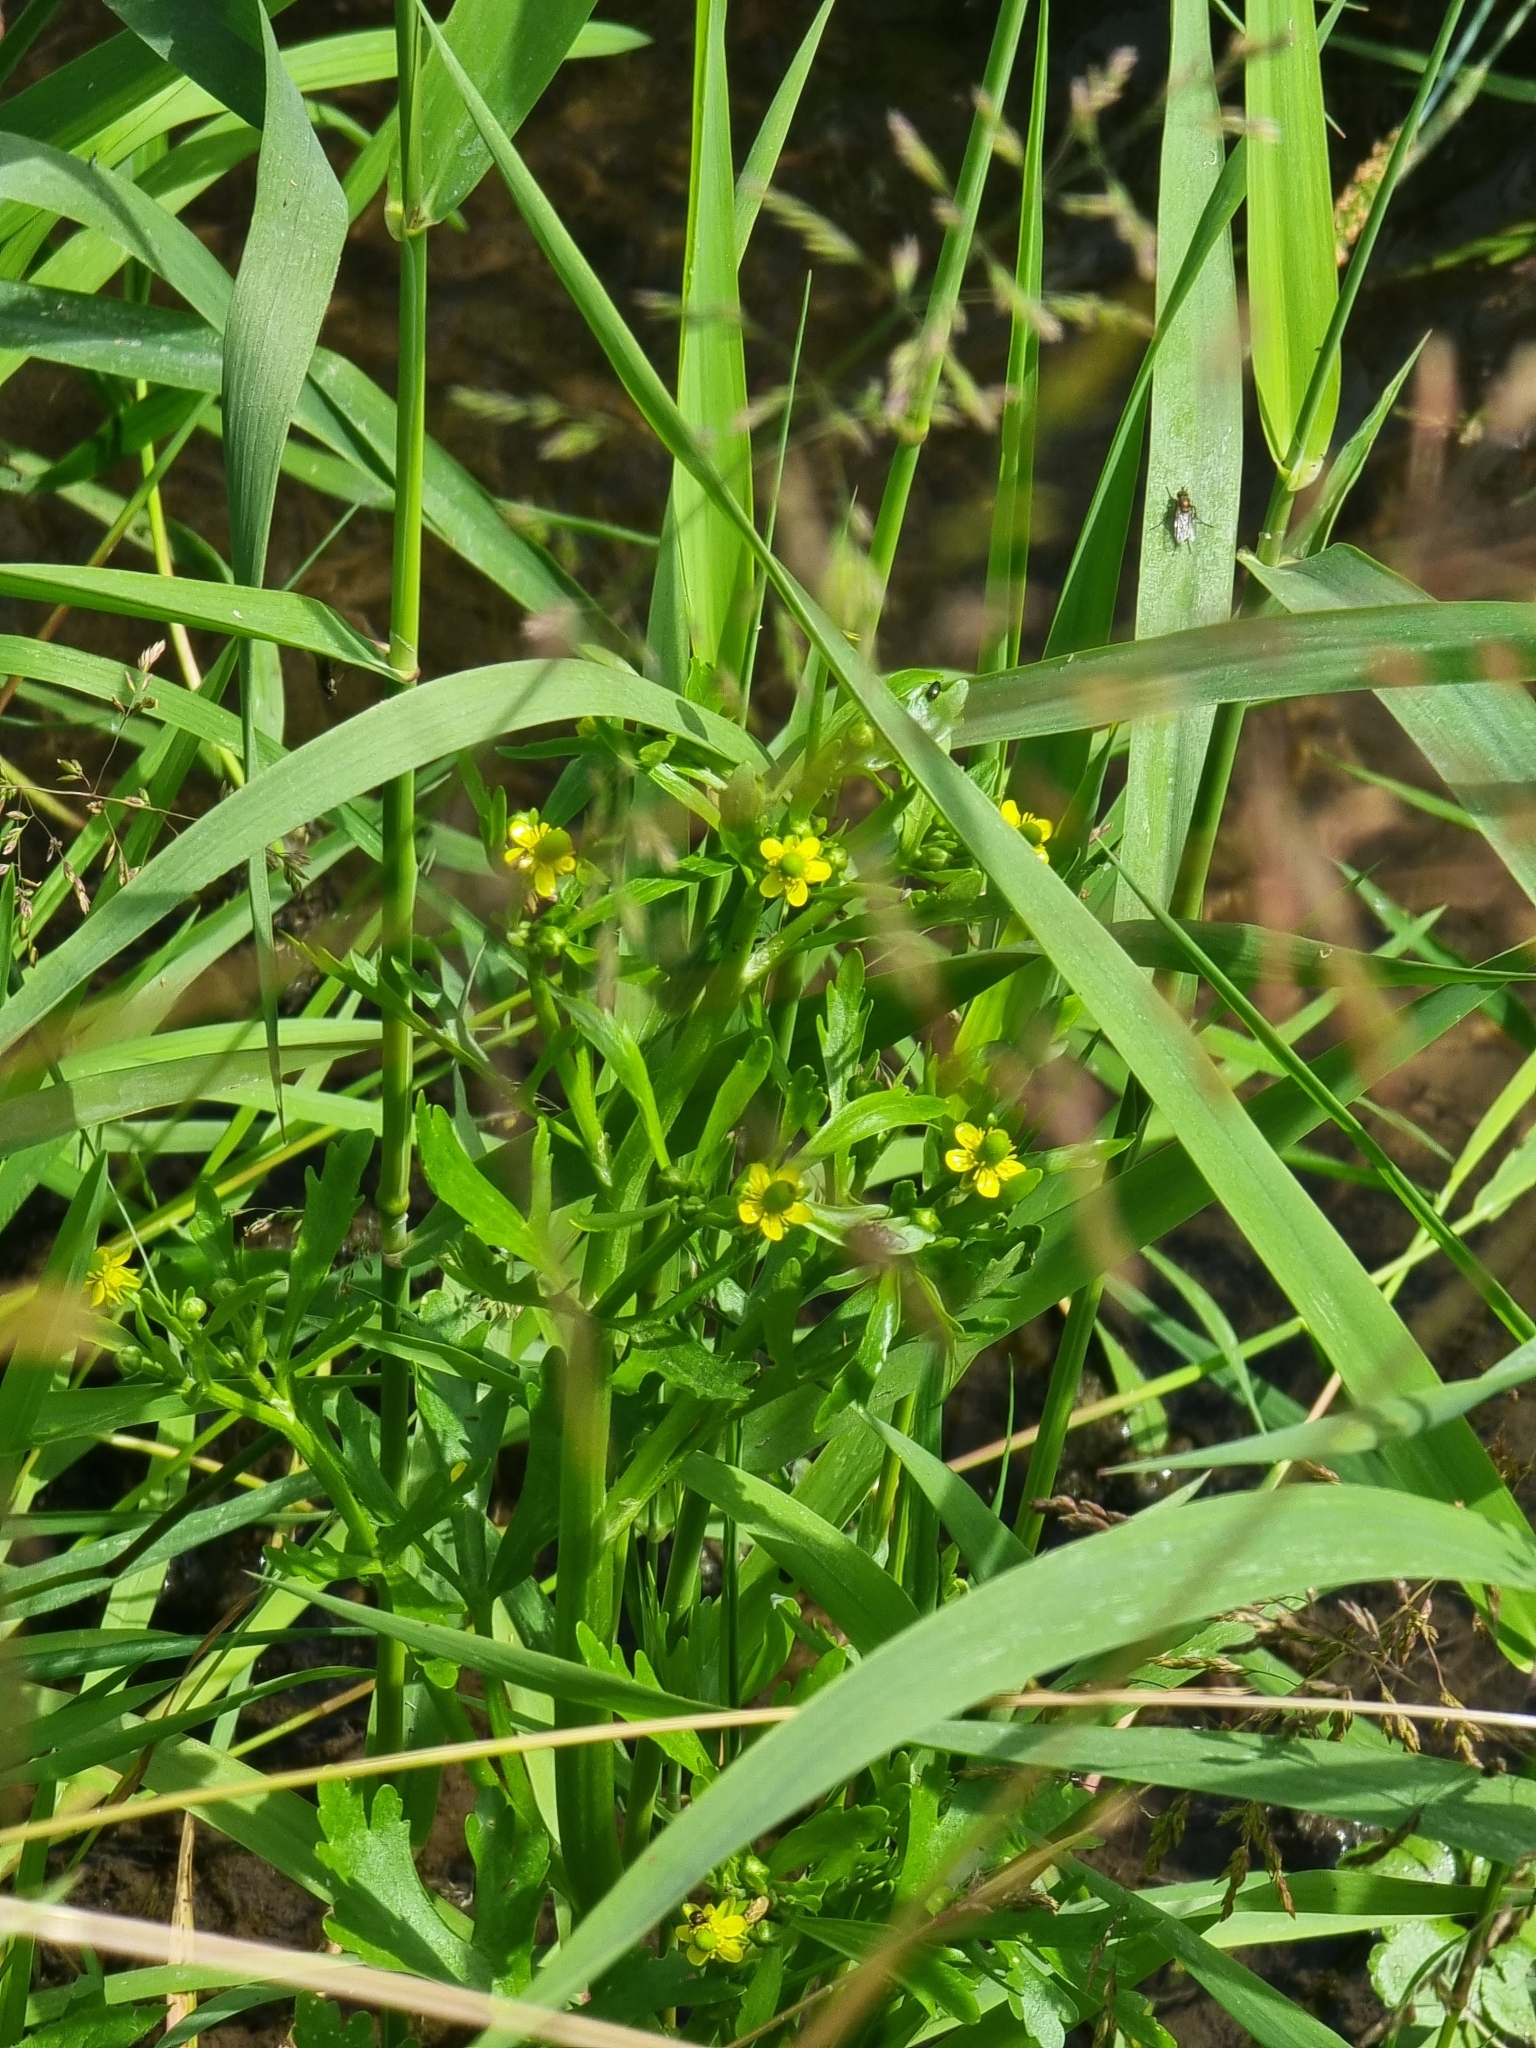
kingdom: Plantae
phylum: Tracheophyta
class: Magnoliopsida
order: Ranunculales
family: Ranunculaceae
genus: Ranunculus
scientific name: Ranunculus sceleratus
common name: Celery-leaved buttercup
